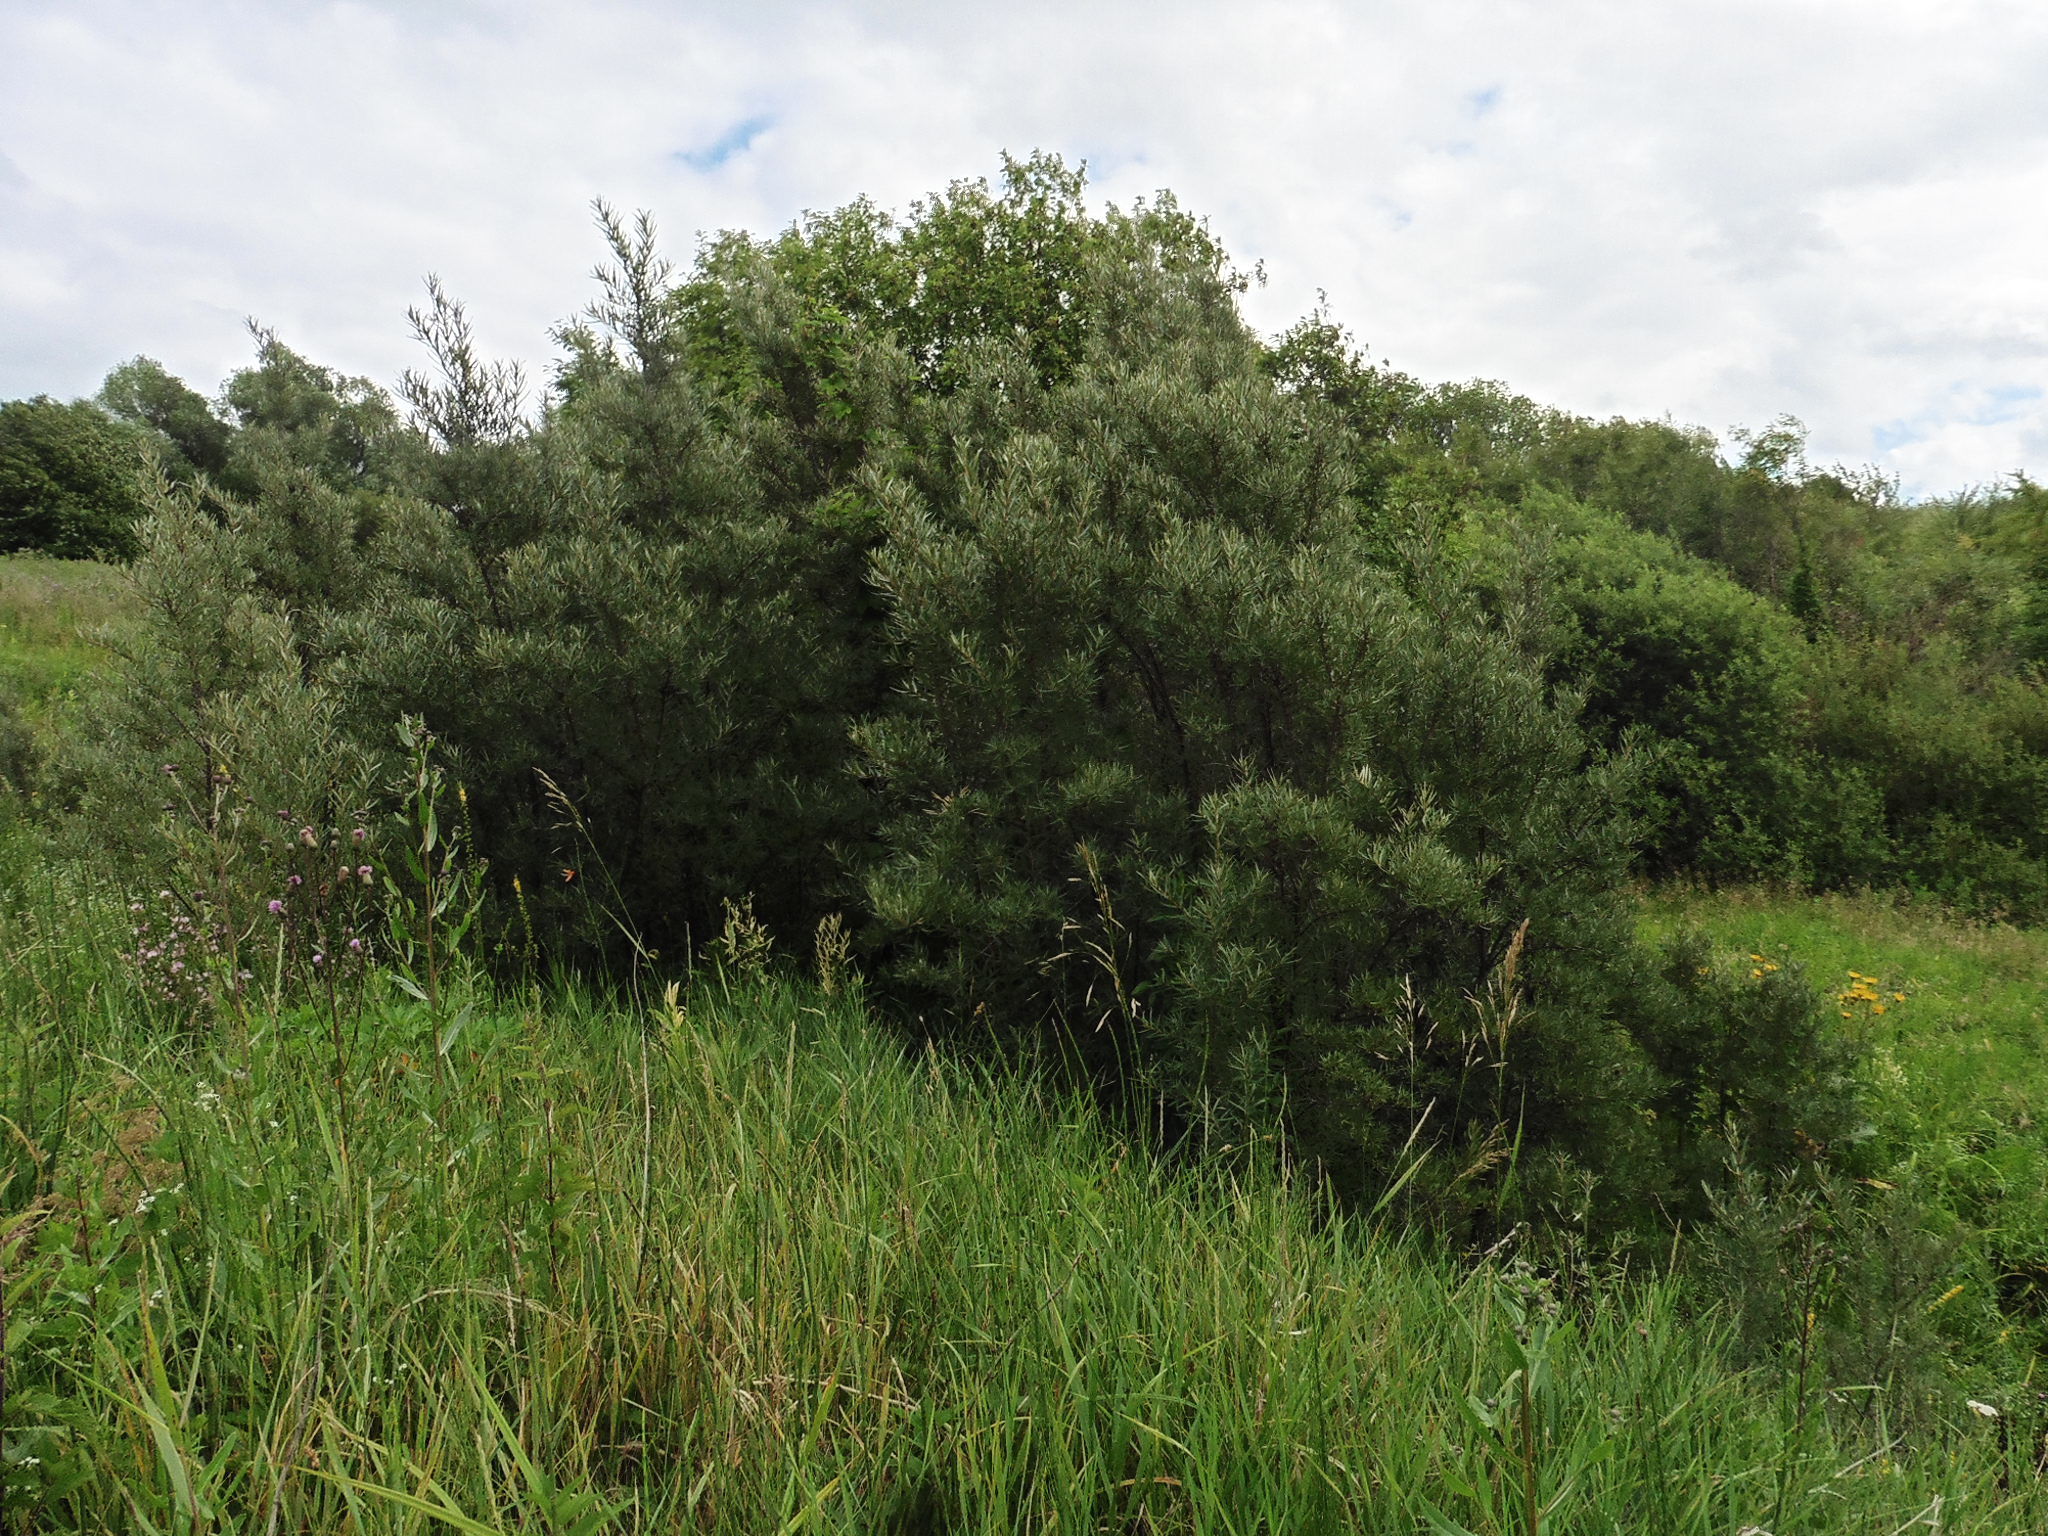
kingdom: Plantae
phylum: Tracheophyta
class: Magnoliopsida
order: Rosales
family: Elaeagnaceae
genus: Hippophae
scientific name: Hippophae rhamnoides
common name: Sea-buckthorn
